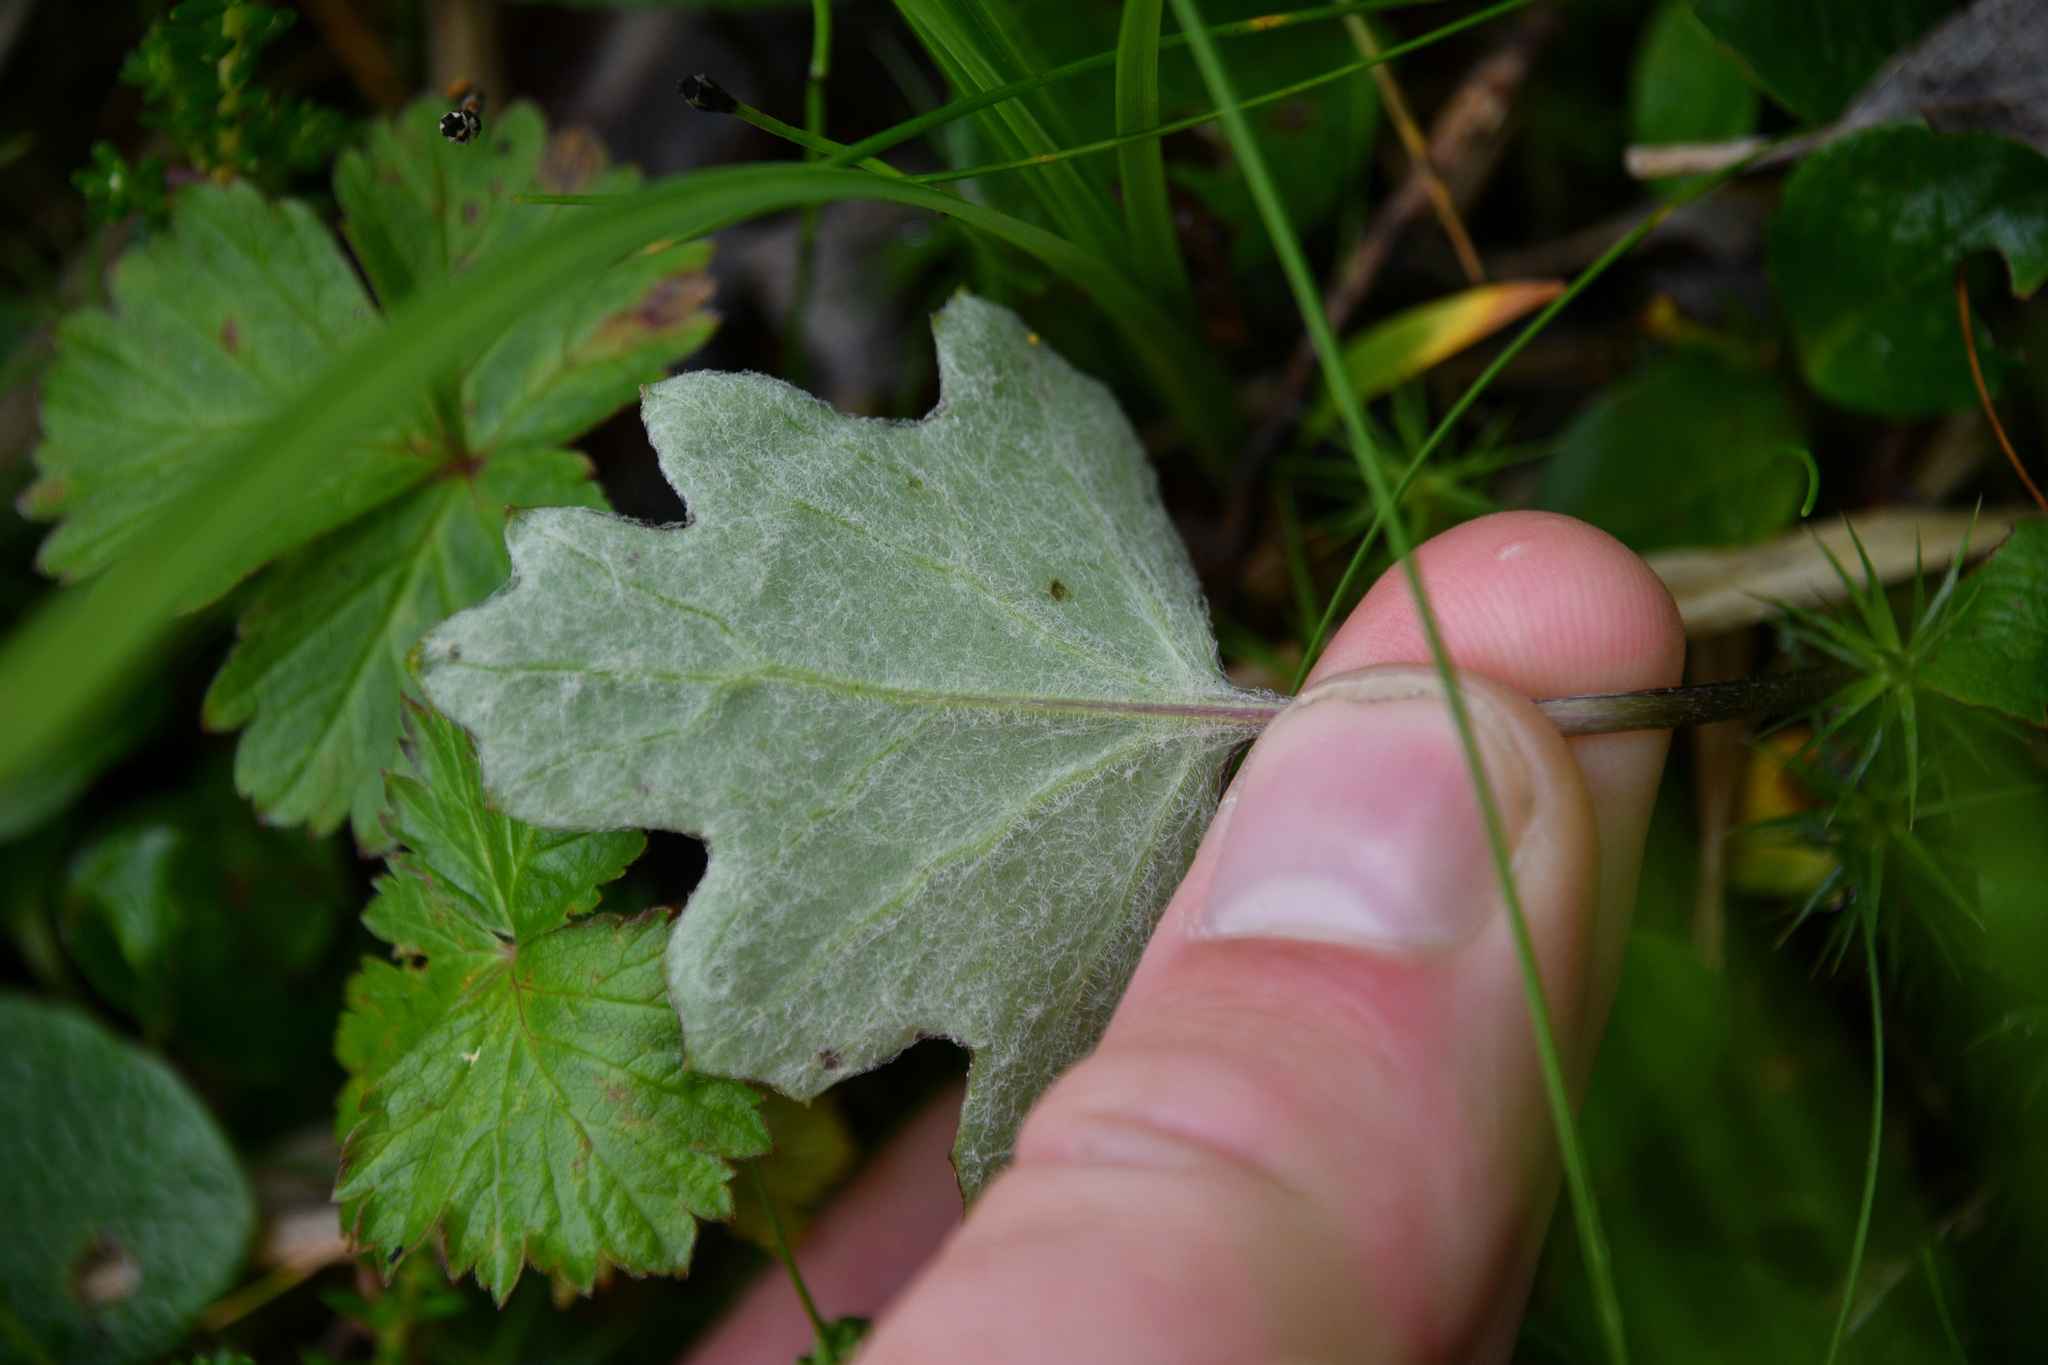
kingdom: Plantae
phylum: Tracheophyta
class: Magnoliopsida
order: Asterales
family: Asteraceae
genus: Petasites
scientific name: Petasites frigidus
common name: Arctic butterbur
